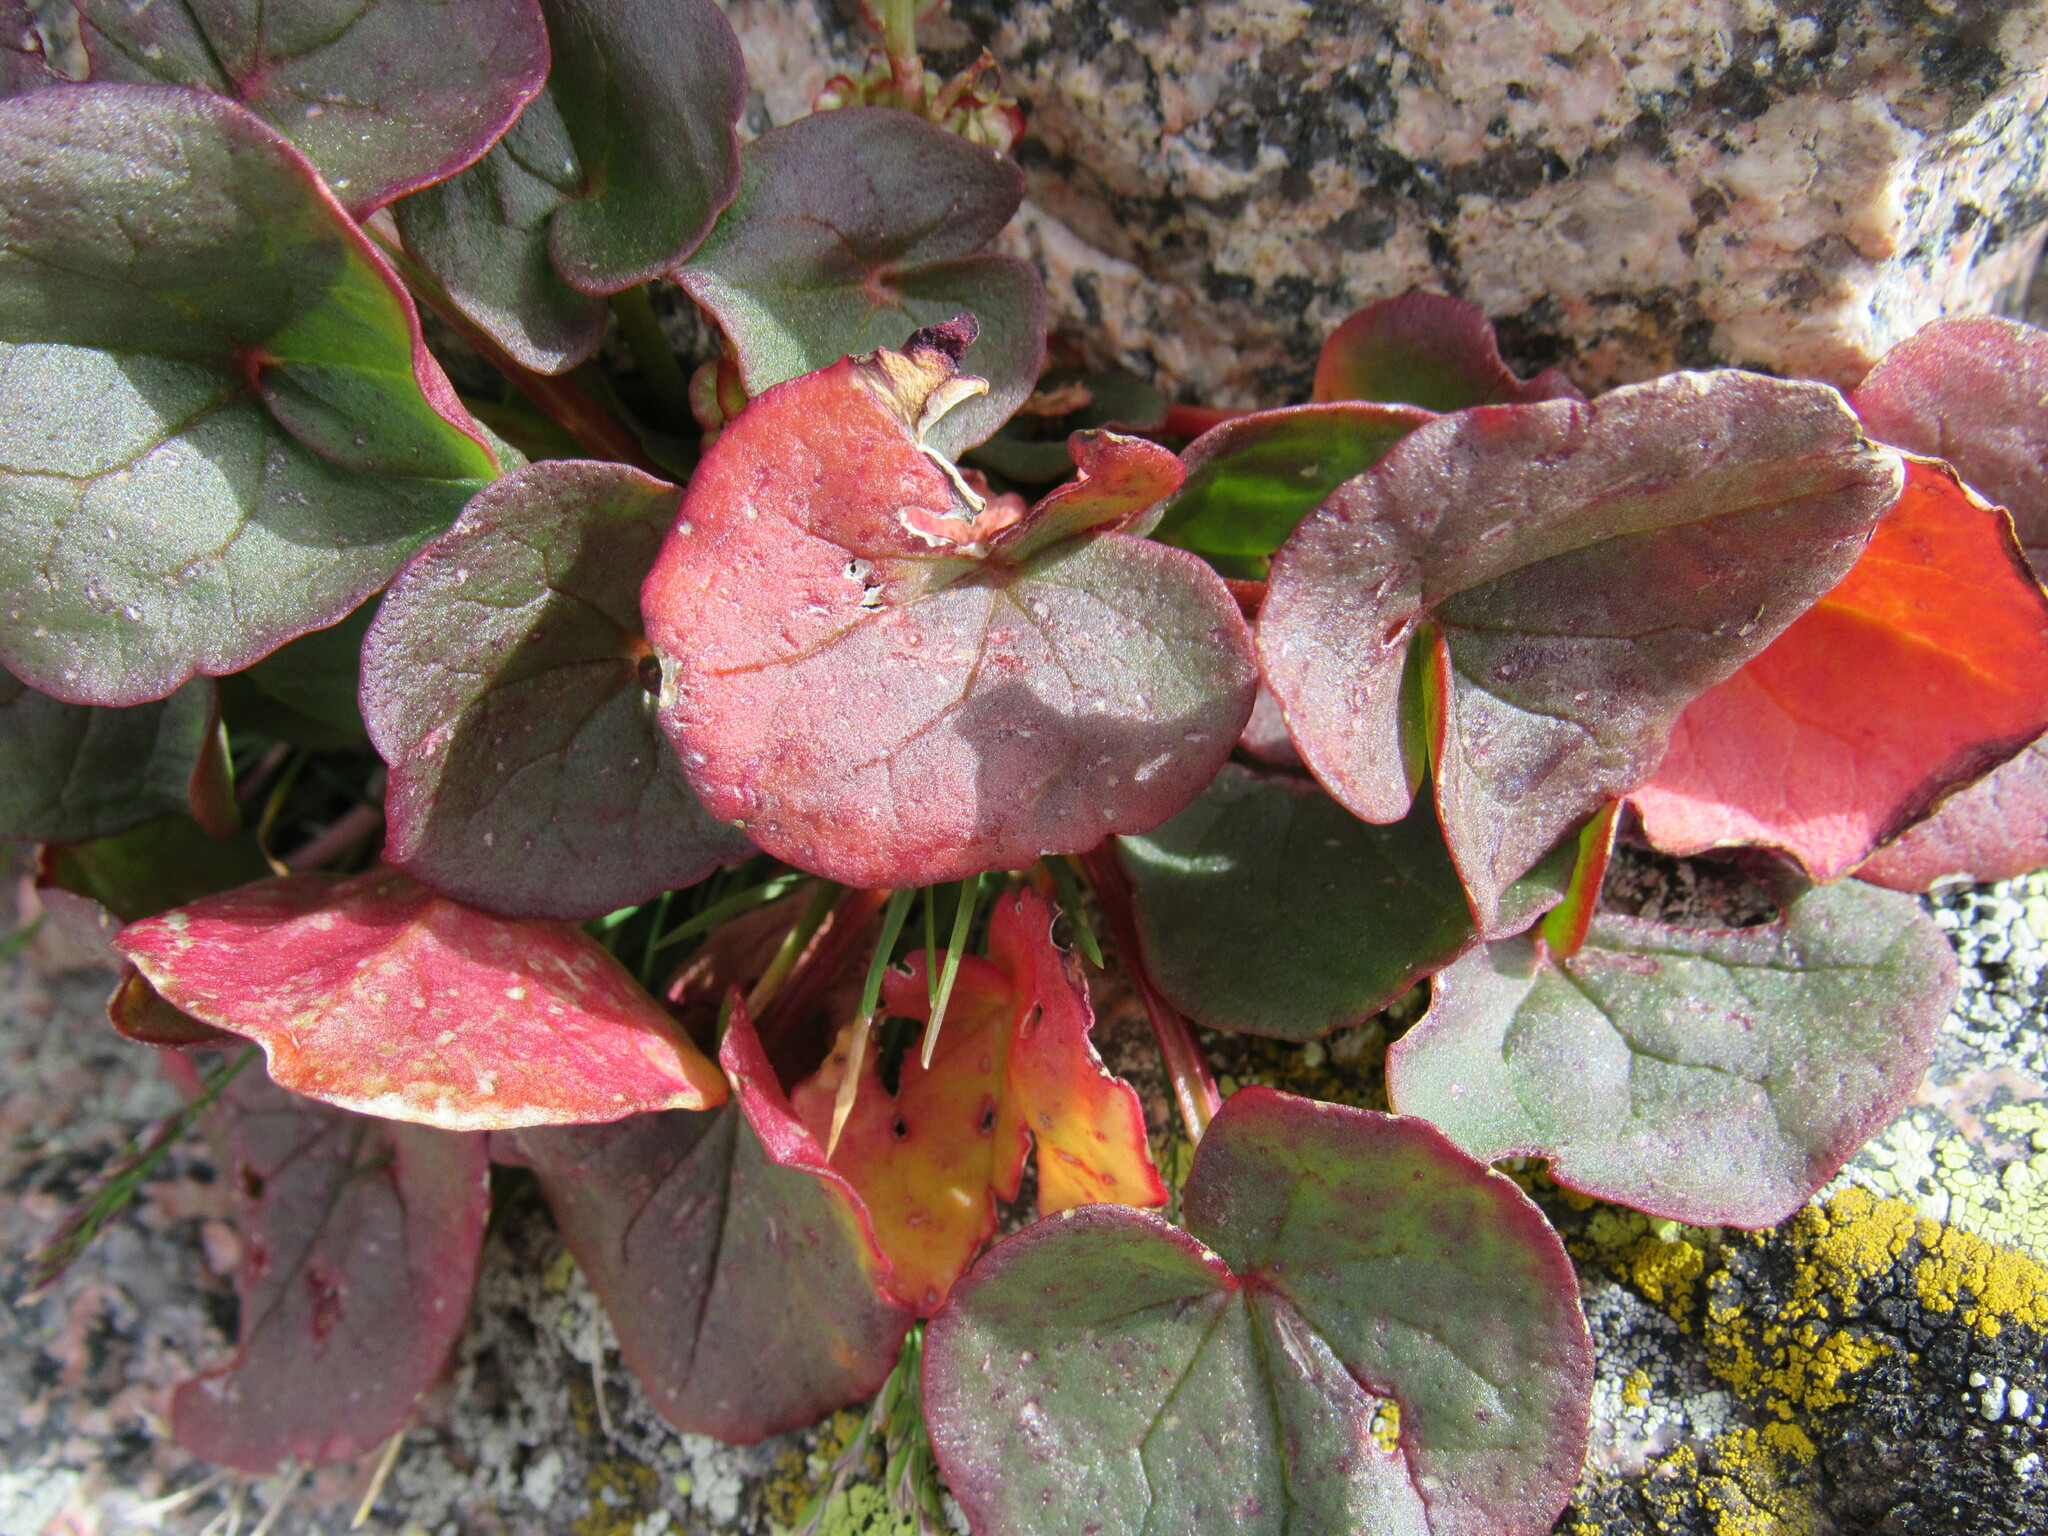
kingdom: Plantae
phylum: Tracheophyta
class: Magnoliopsida
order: Caryophyllales
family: Polygonaceae
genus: Oxyria
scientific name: Oxyria digyna
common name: Alpine mountain-sorrel
